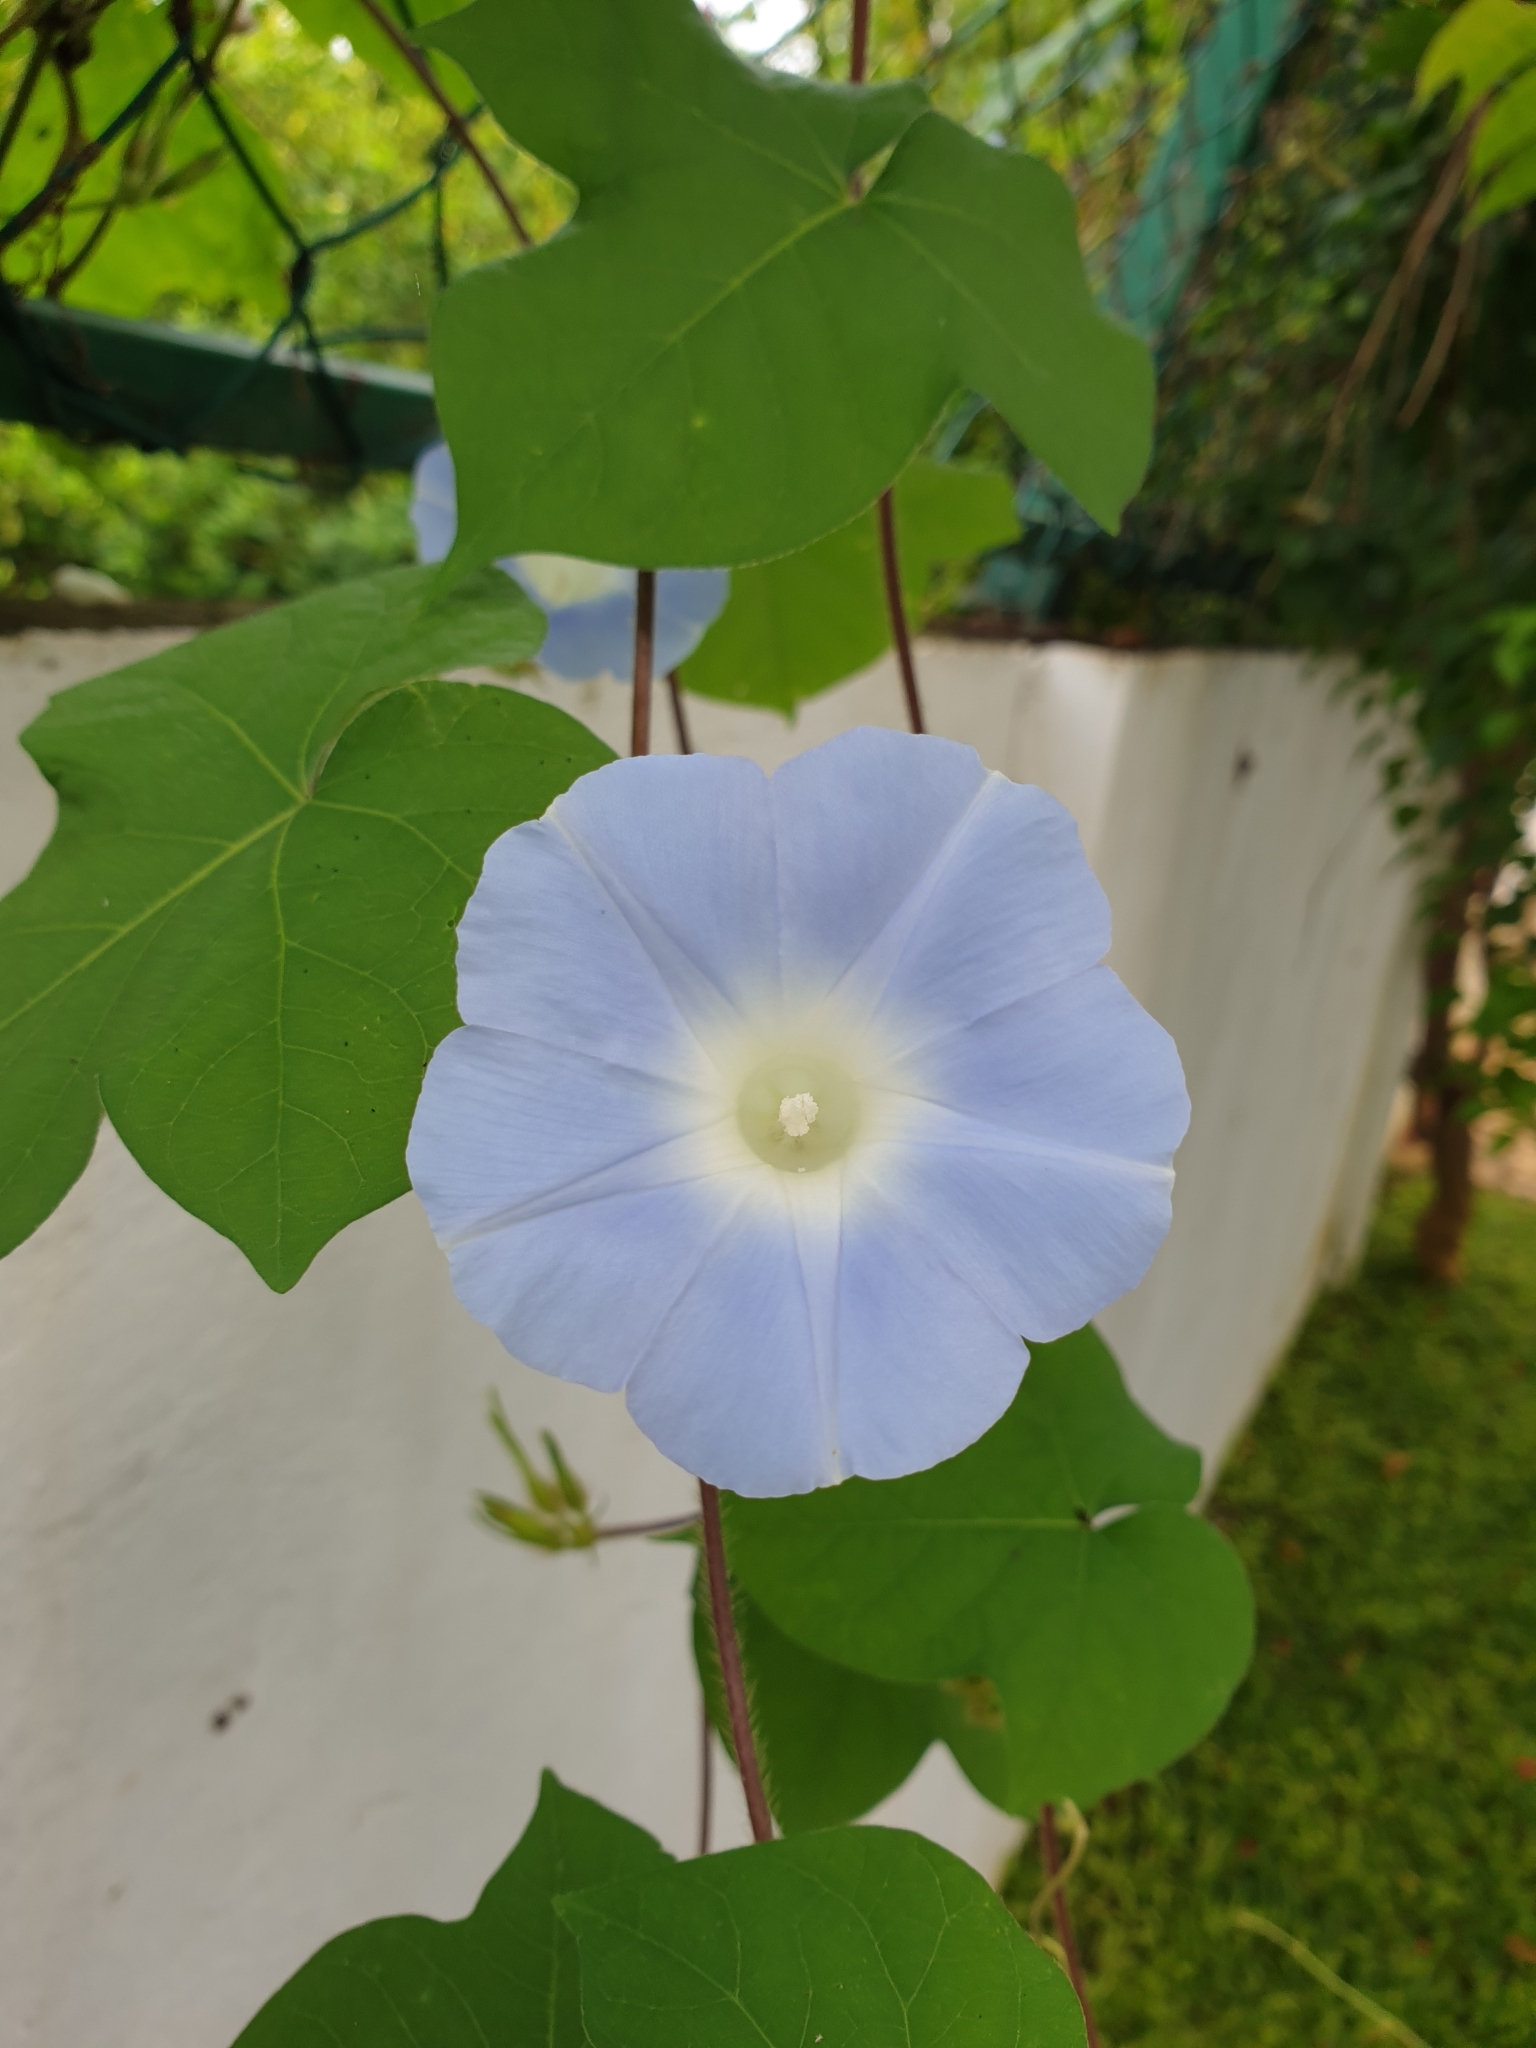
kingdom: Plantae
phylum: Tracheophyta
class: Magnoliopsida
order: Solanales
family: Convolvulaceae
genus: Ipomoea
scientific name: Ipomoea nil
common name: Japanese morning-glory
